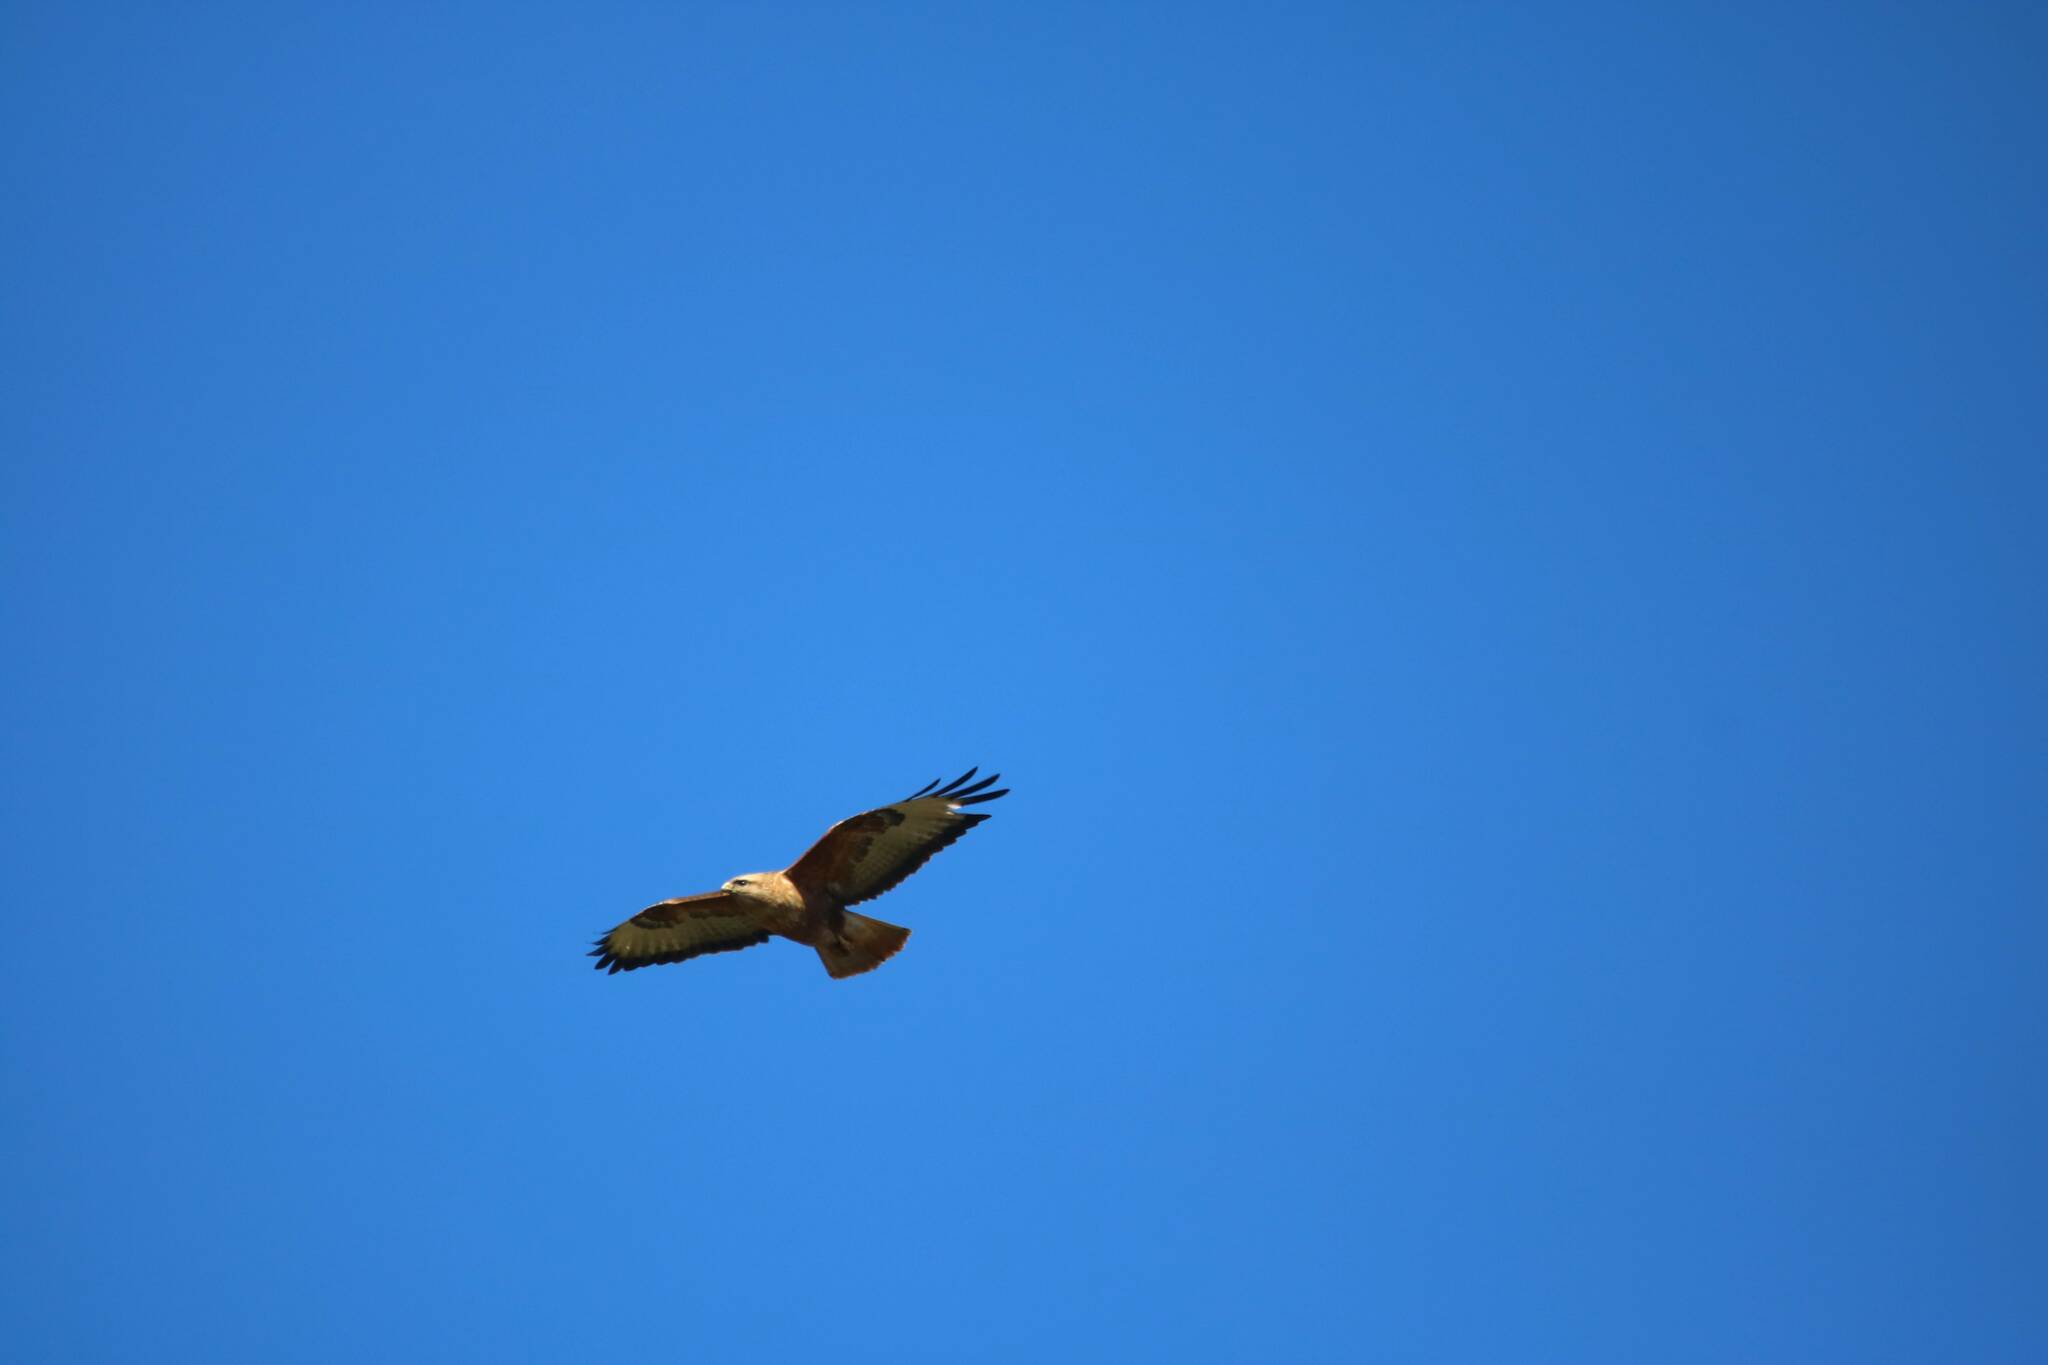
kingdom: Animalia
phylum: Chordata
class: Aves
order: Accipitriformes
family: Accipitridae
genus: Buteo
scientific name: Buteo rufinus
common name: Long-legged buzzard
